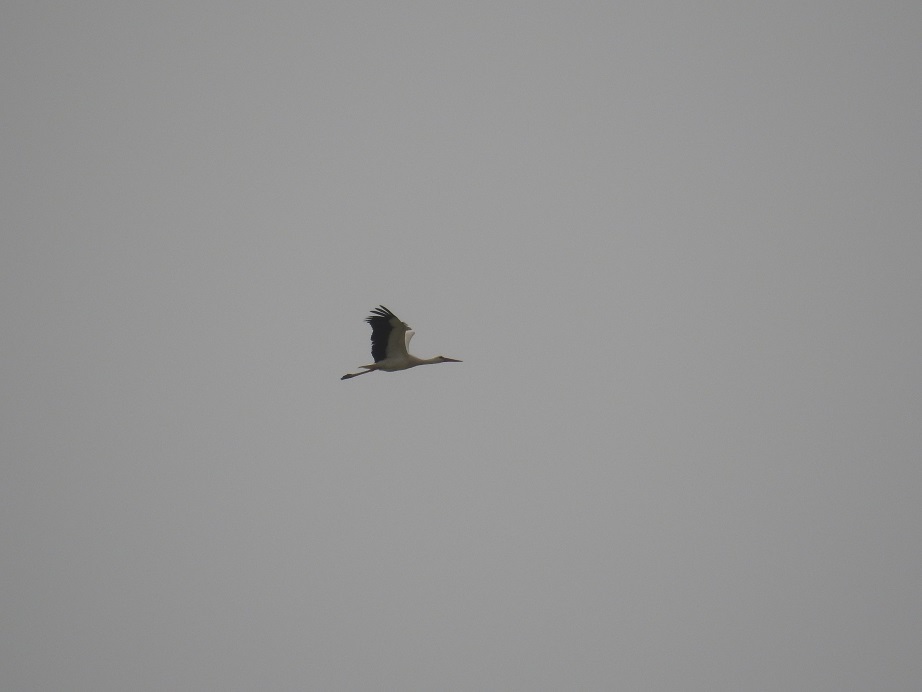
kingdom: Animalia
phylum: Chordata
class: Aves
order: Ciconiiformes
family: Ciconiidae
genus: Ciconia
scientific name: Ciconia ciconia
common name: White stork
